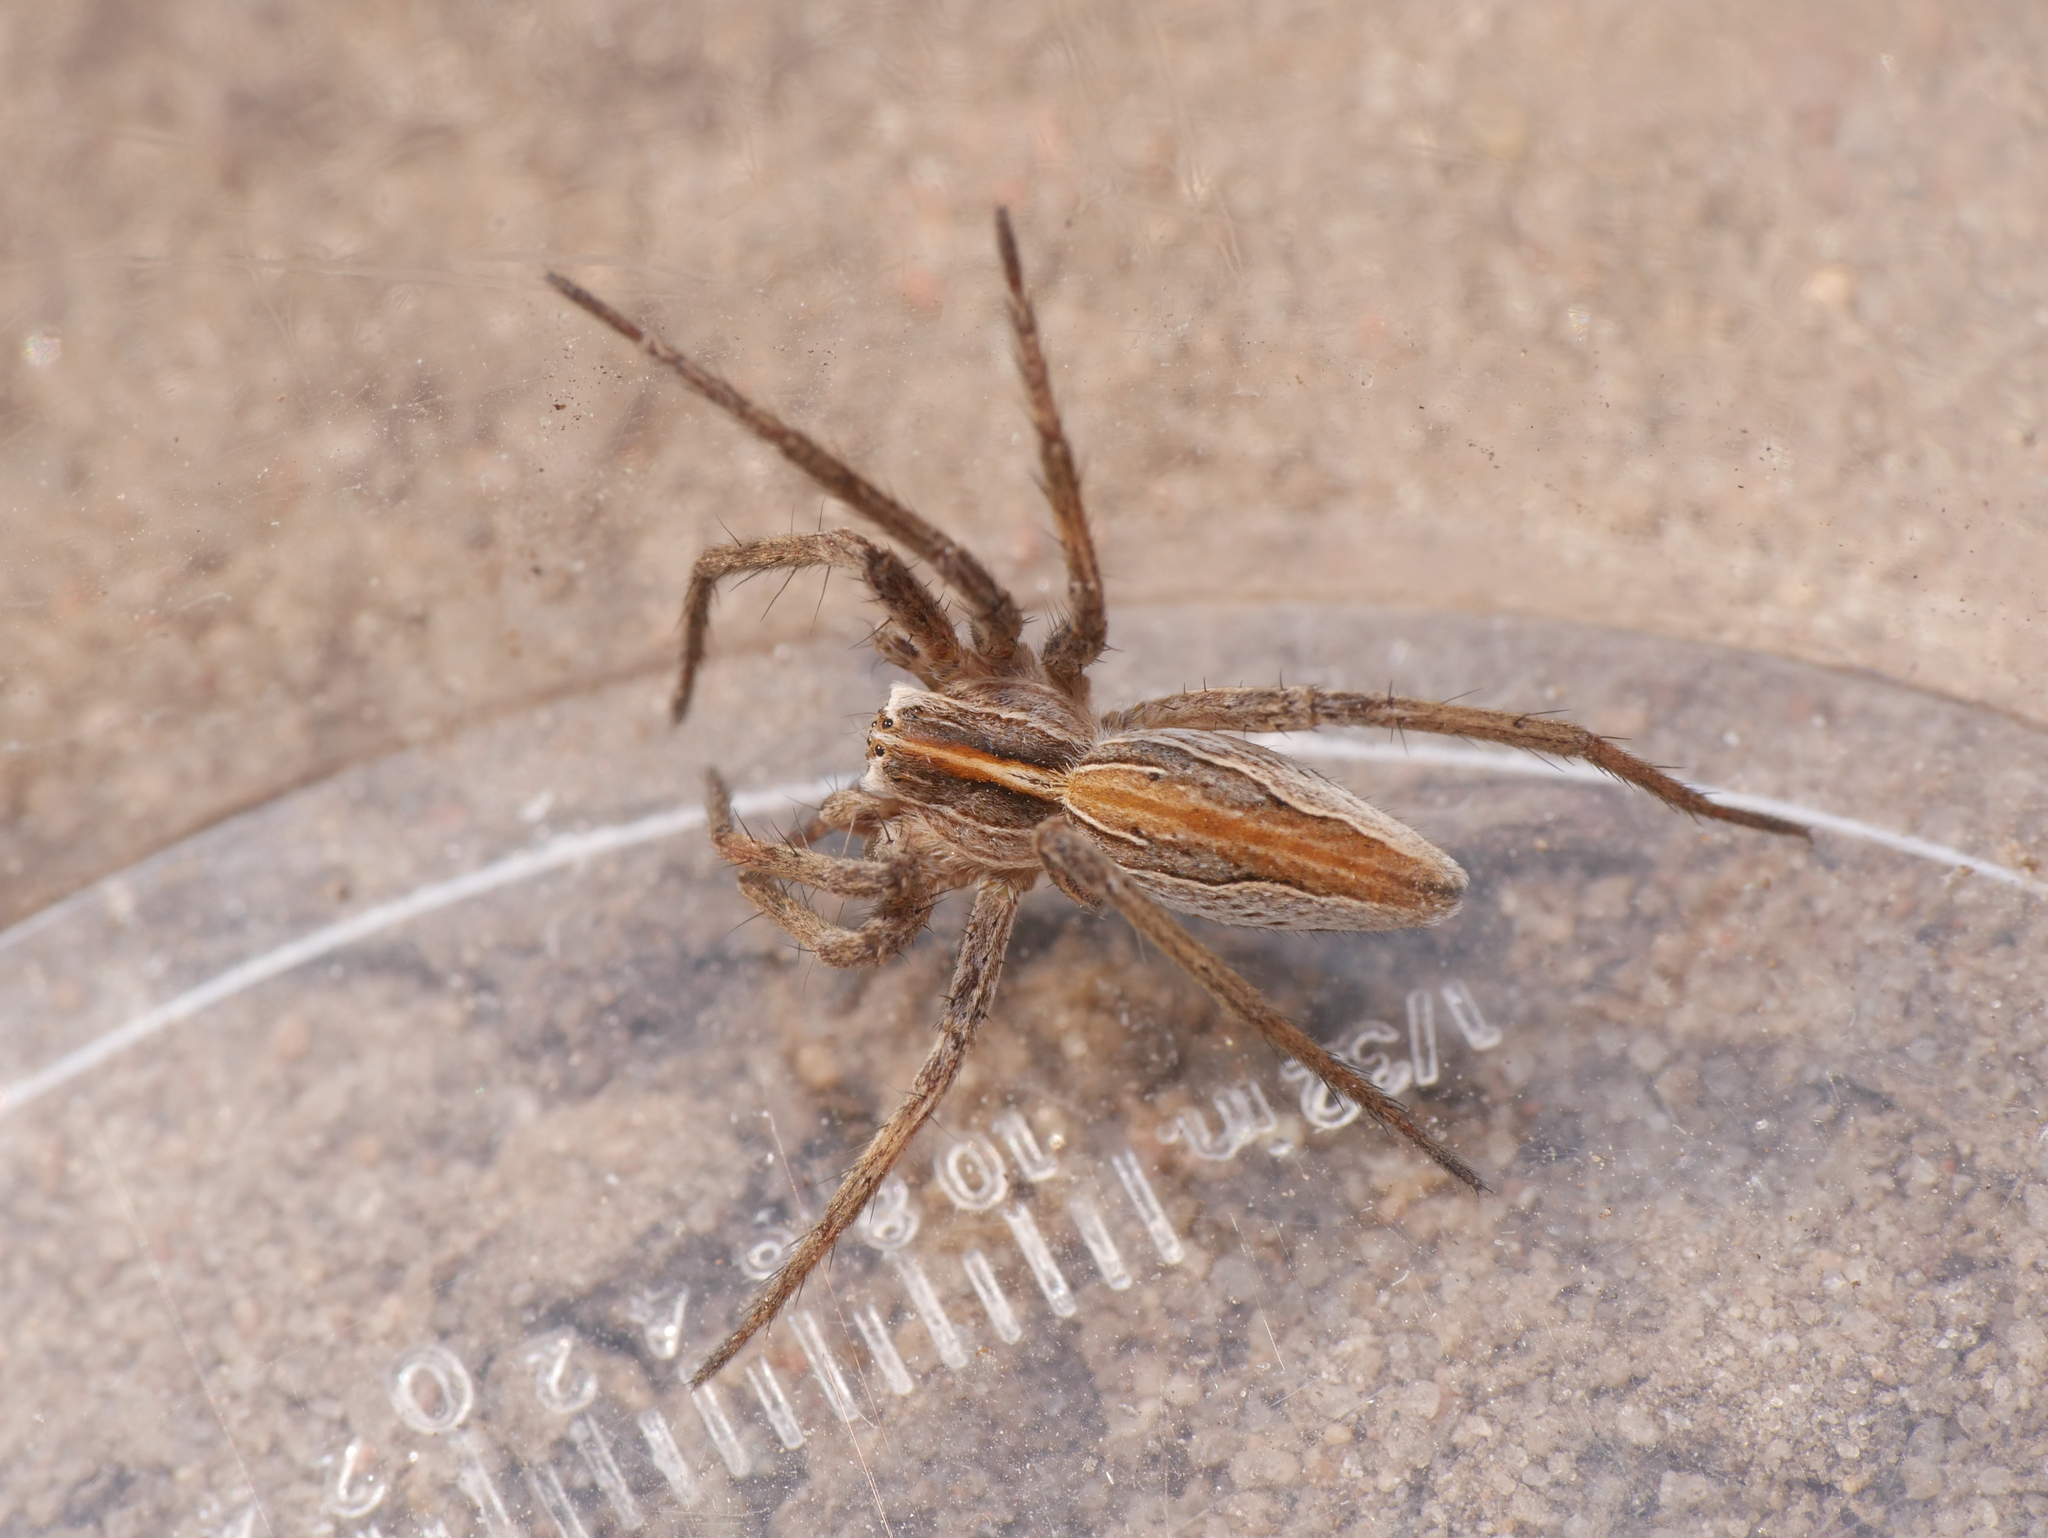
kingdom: Animalia
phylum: Arthropoda
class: Arachnida
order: Araneae
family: Pisauridae
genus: Pisaura
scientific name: Pisaura mirabilis
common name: Tent spider
